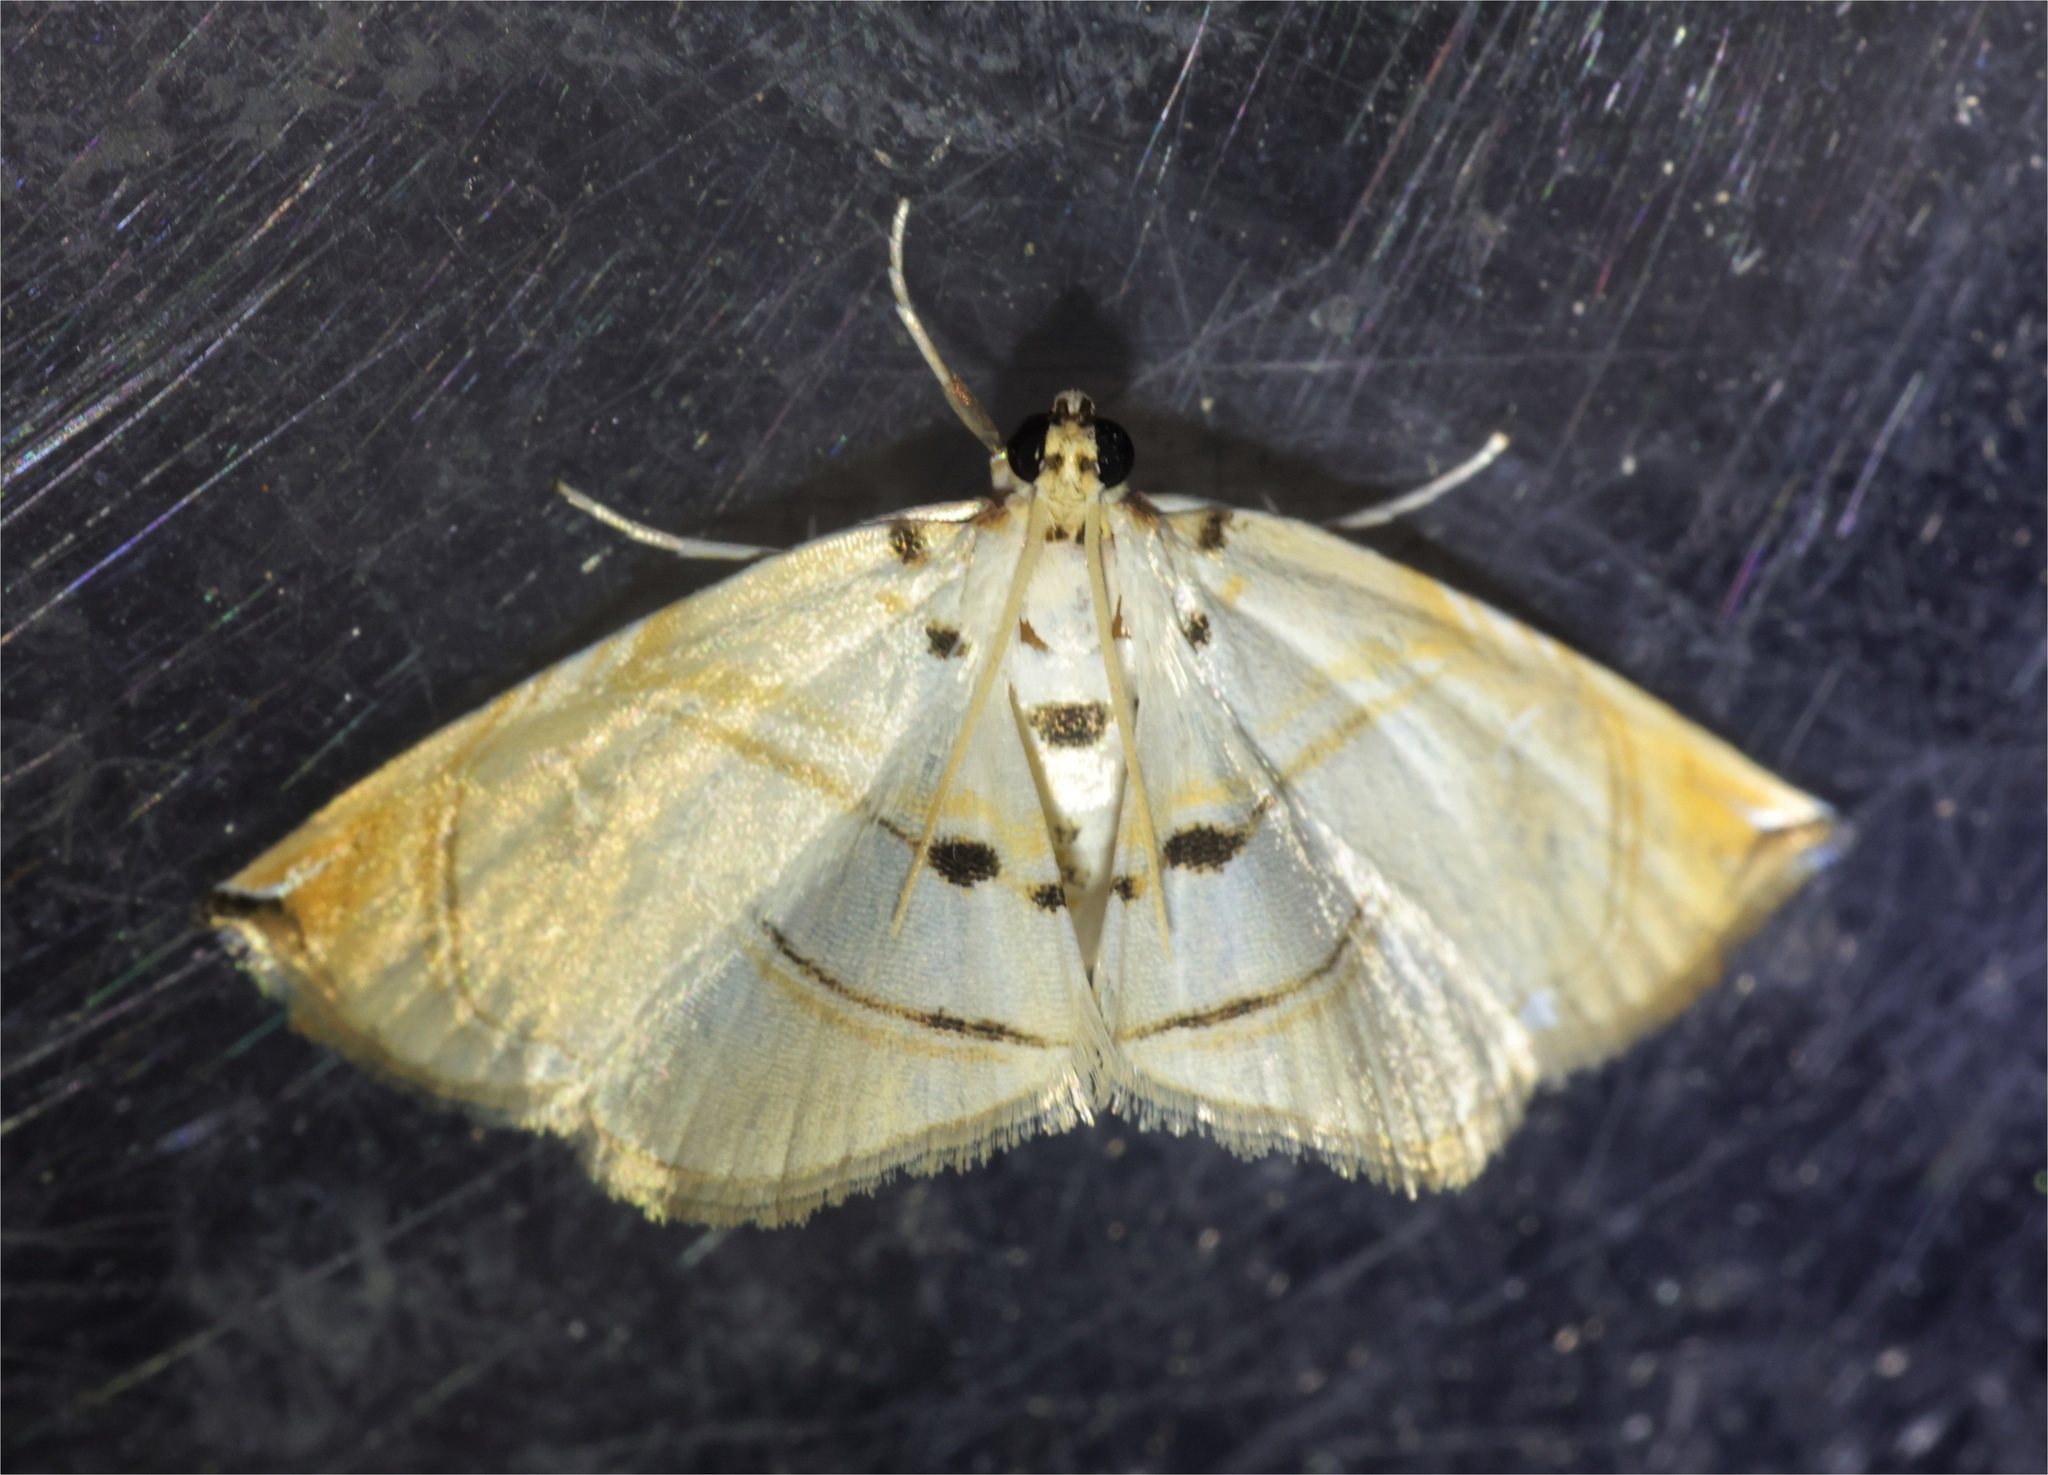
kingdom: Animalia
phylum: Arthropoda
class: Insecta
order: Lepidoptera
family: Crambidae
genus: Trichophysetis
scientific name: Trichophysetis hampsoni
